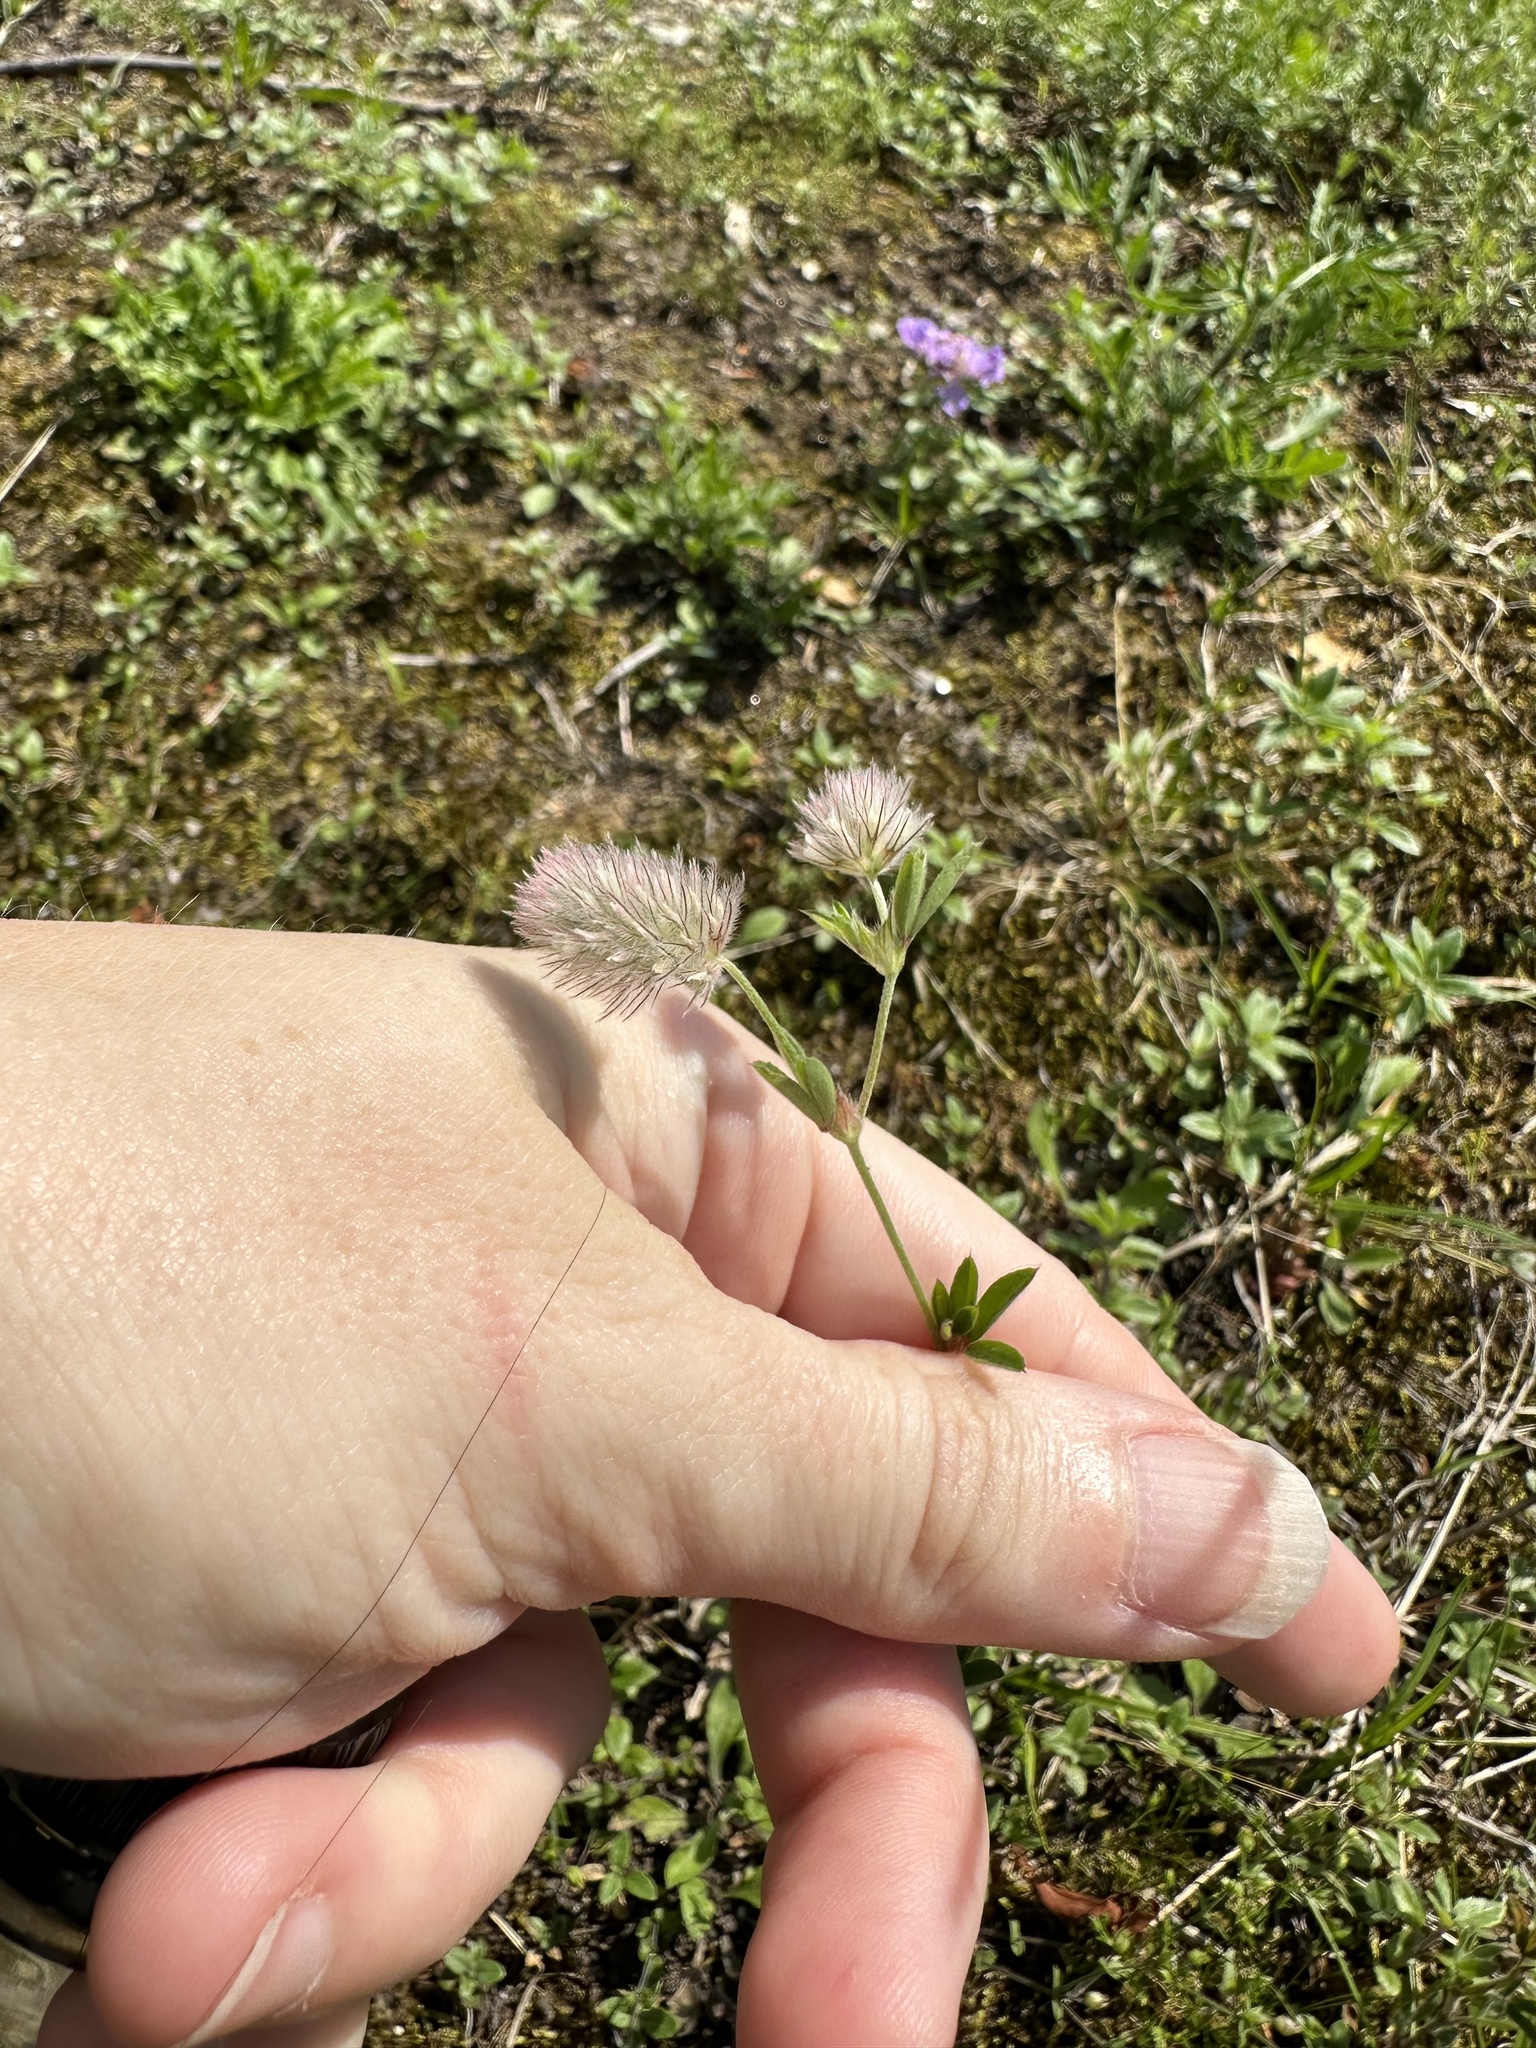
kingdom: Plantae
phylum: Tracheophyta
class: Magnoliopsida
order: Fabales
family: Fabaceae
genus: Trifolium
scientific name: Trifolium arvense
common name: Hare's-foot clover
